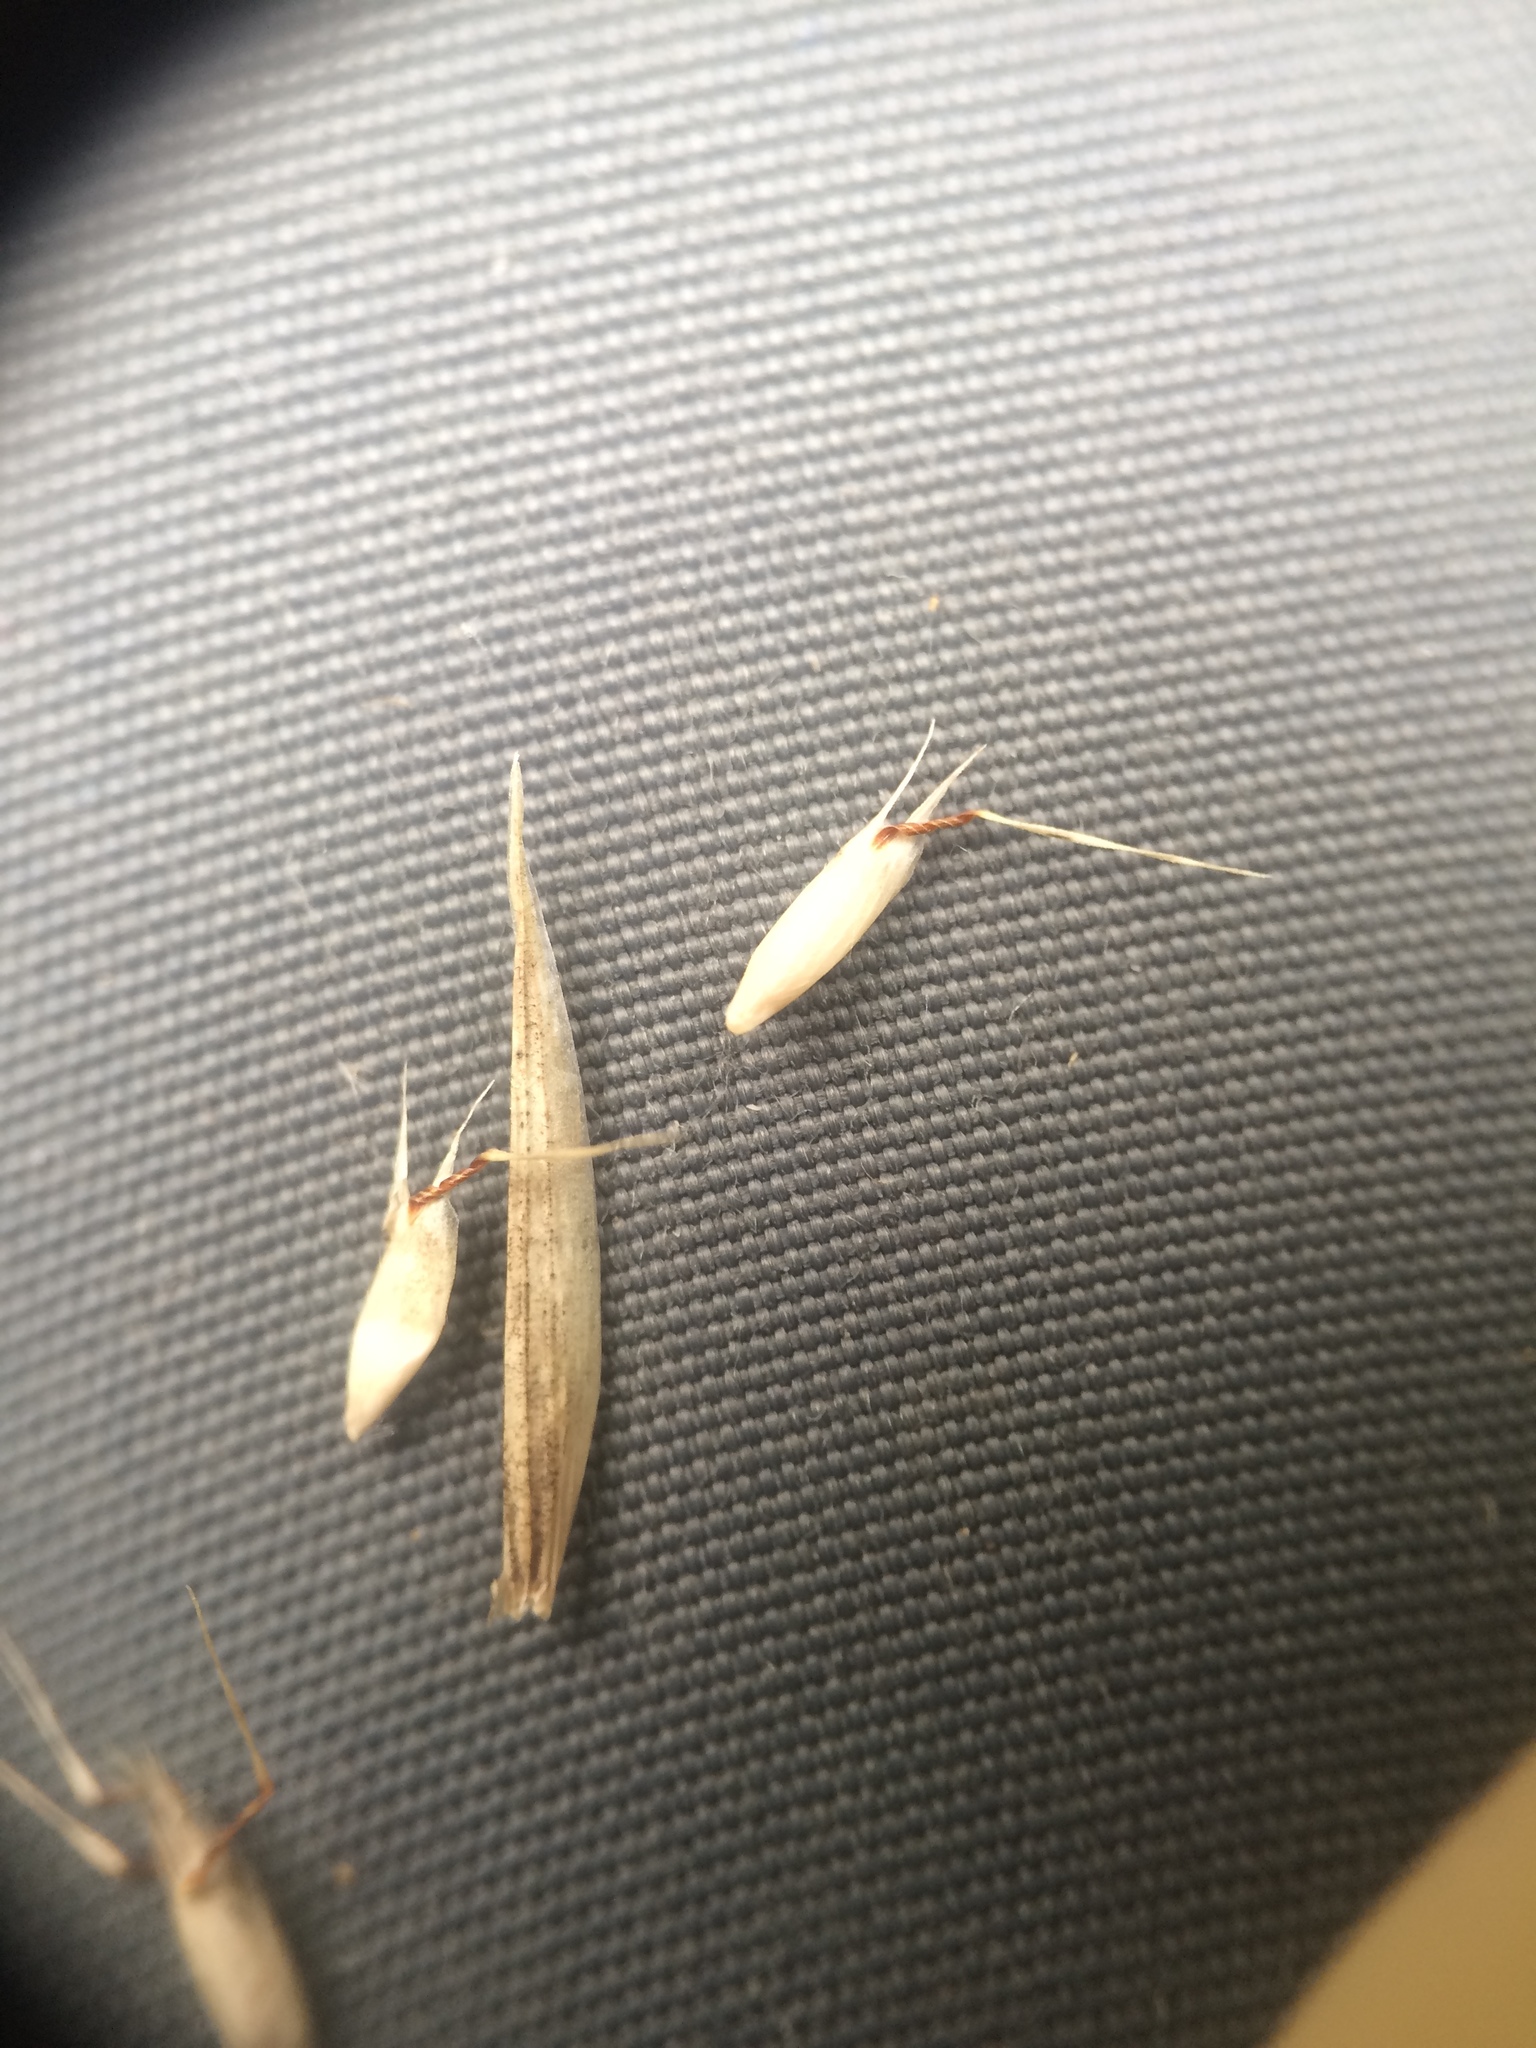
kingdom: Plantae
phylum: Tracheophyta
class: Liliopsida
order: Poales
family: Poaceae
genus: Danthonia
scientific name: Danthonia spicata
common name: Common wild oatgrass
